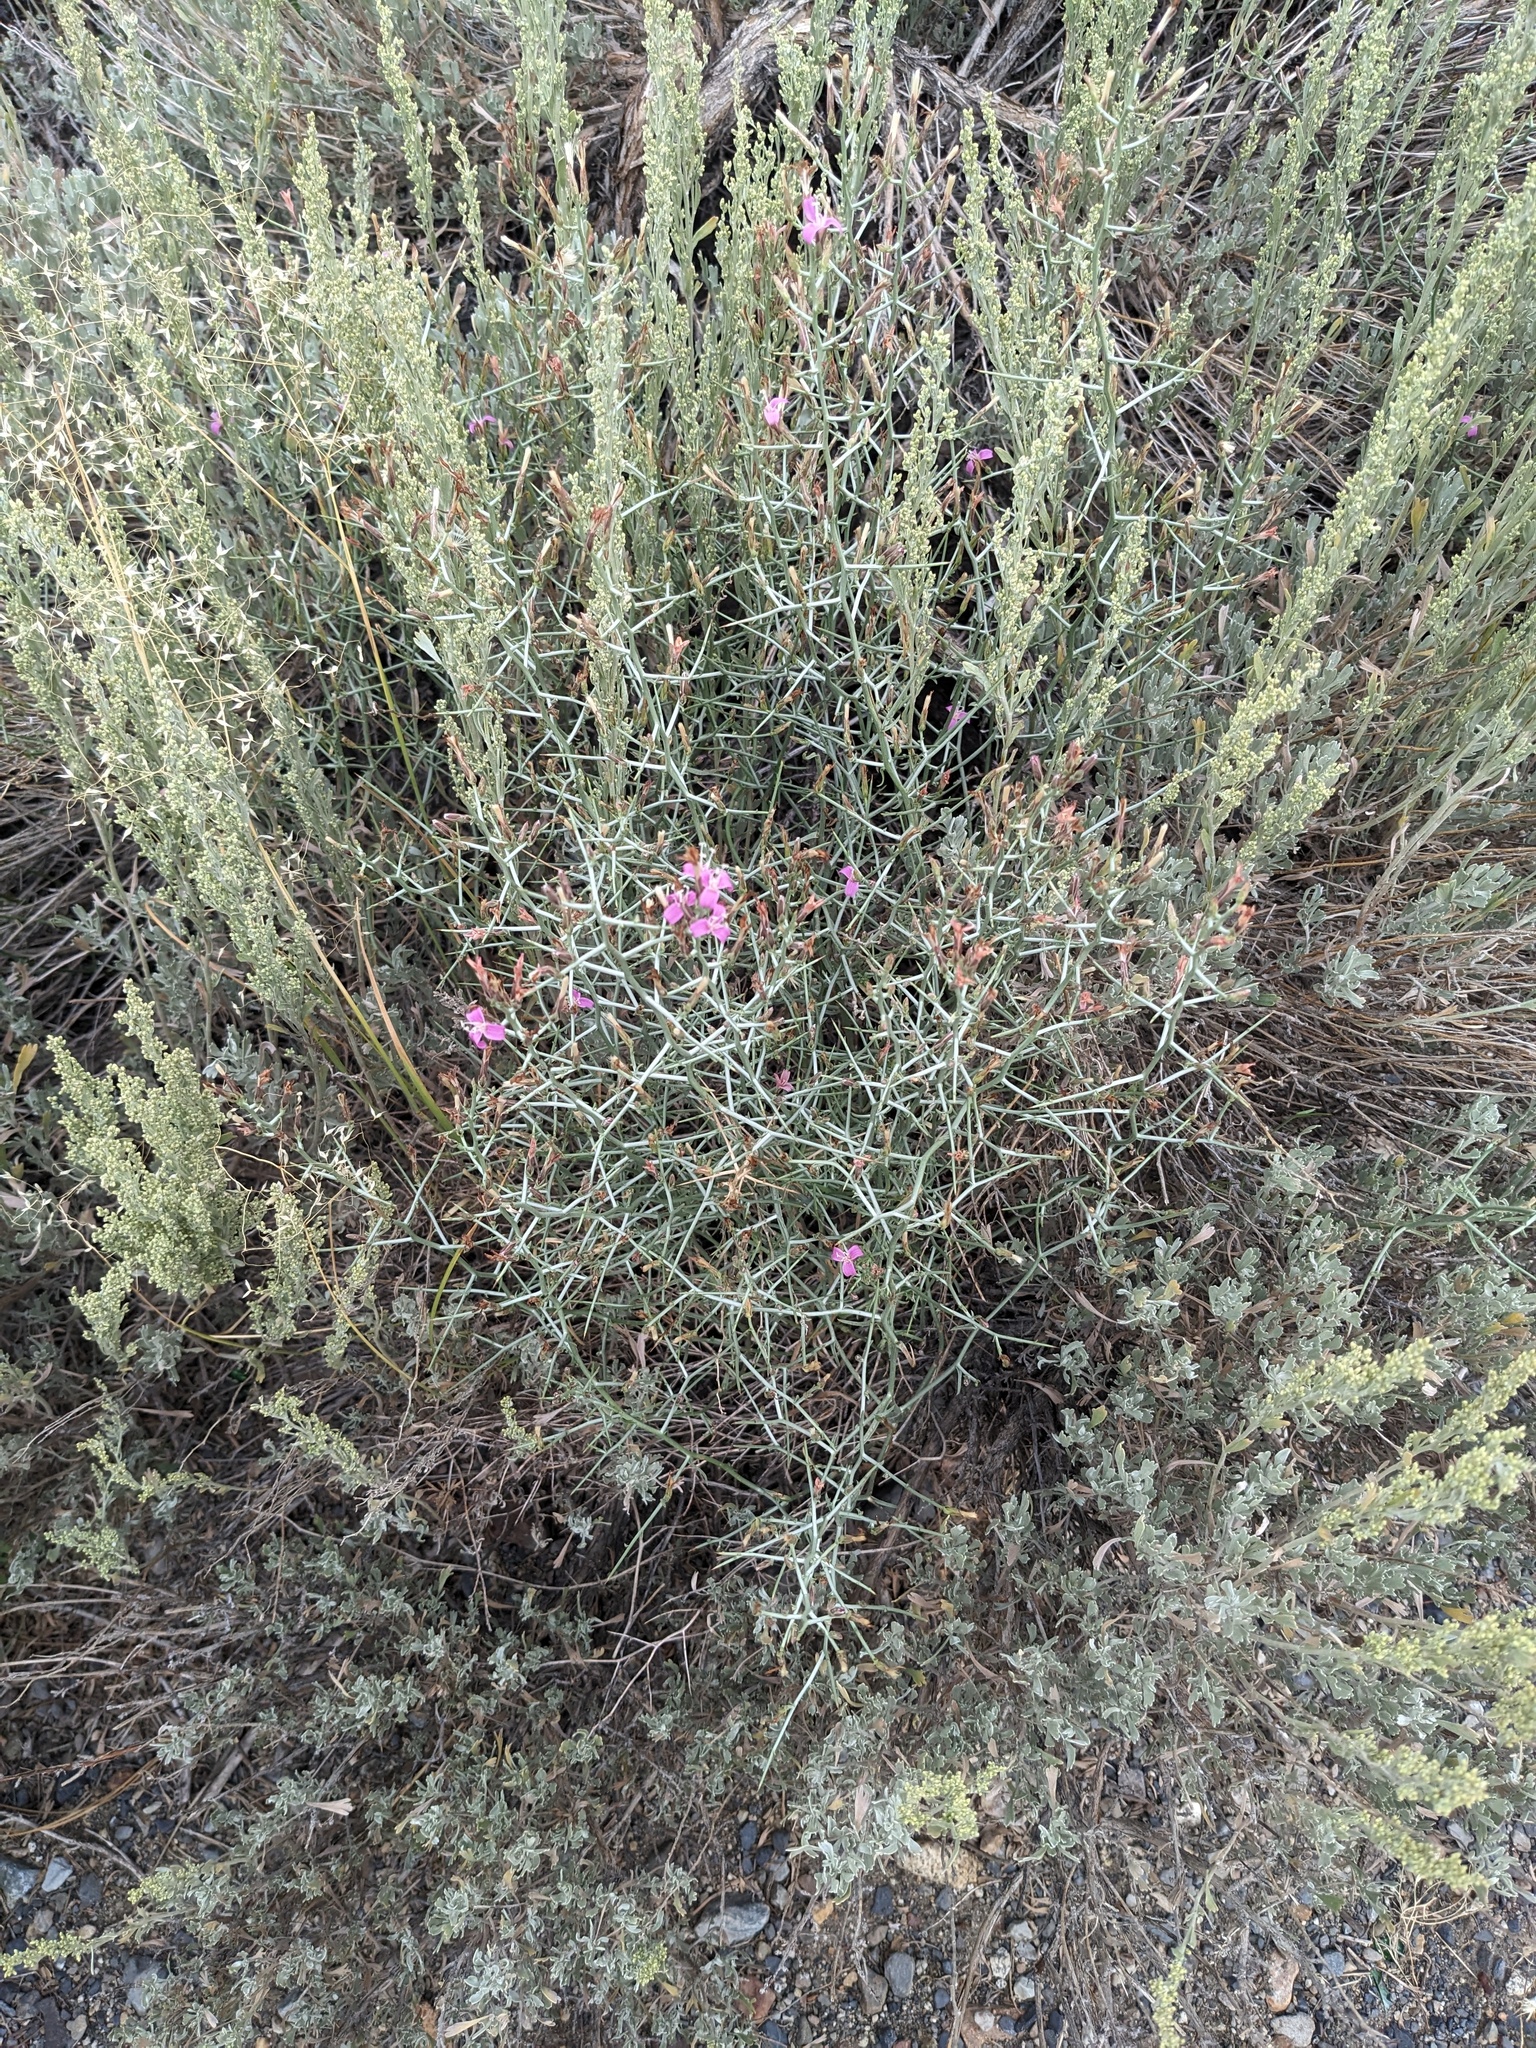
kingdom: Plantae
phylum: Tracheophyta
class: Magnoliopsida
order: Asterales
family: Asteraceae
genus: Pleiacanthus
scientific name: Pleiacanthus spinosus
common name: Thorny skeleton-weed
